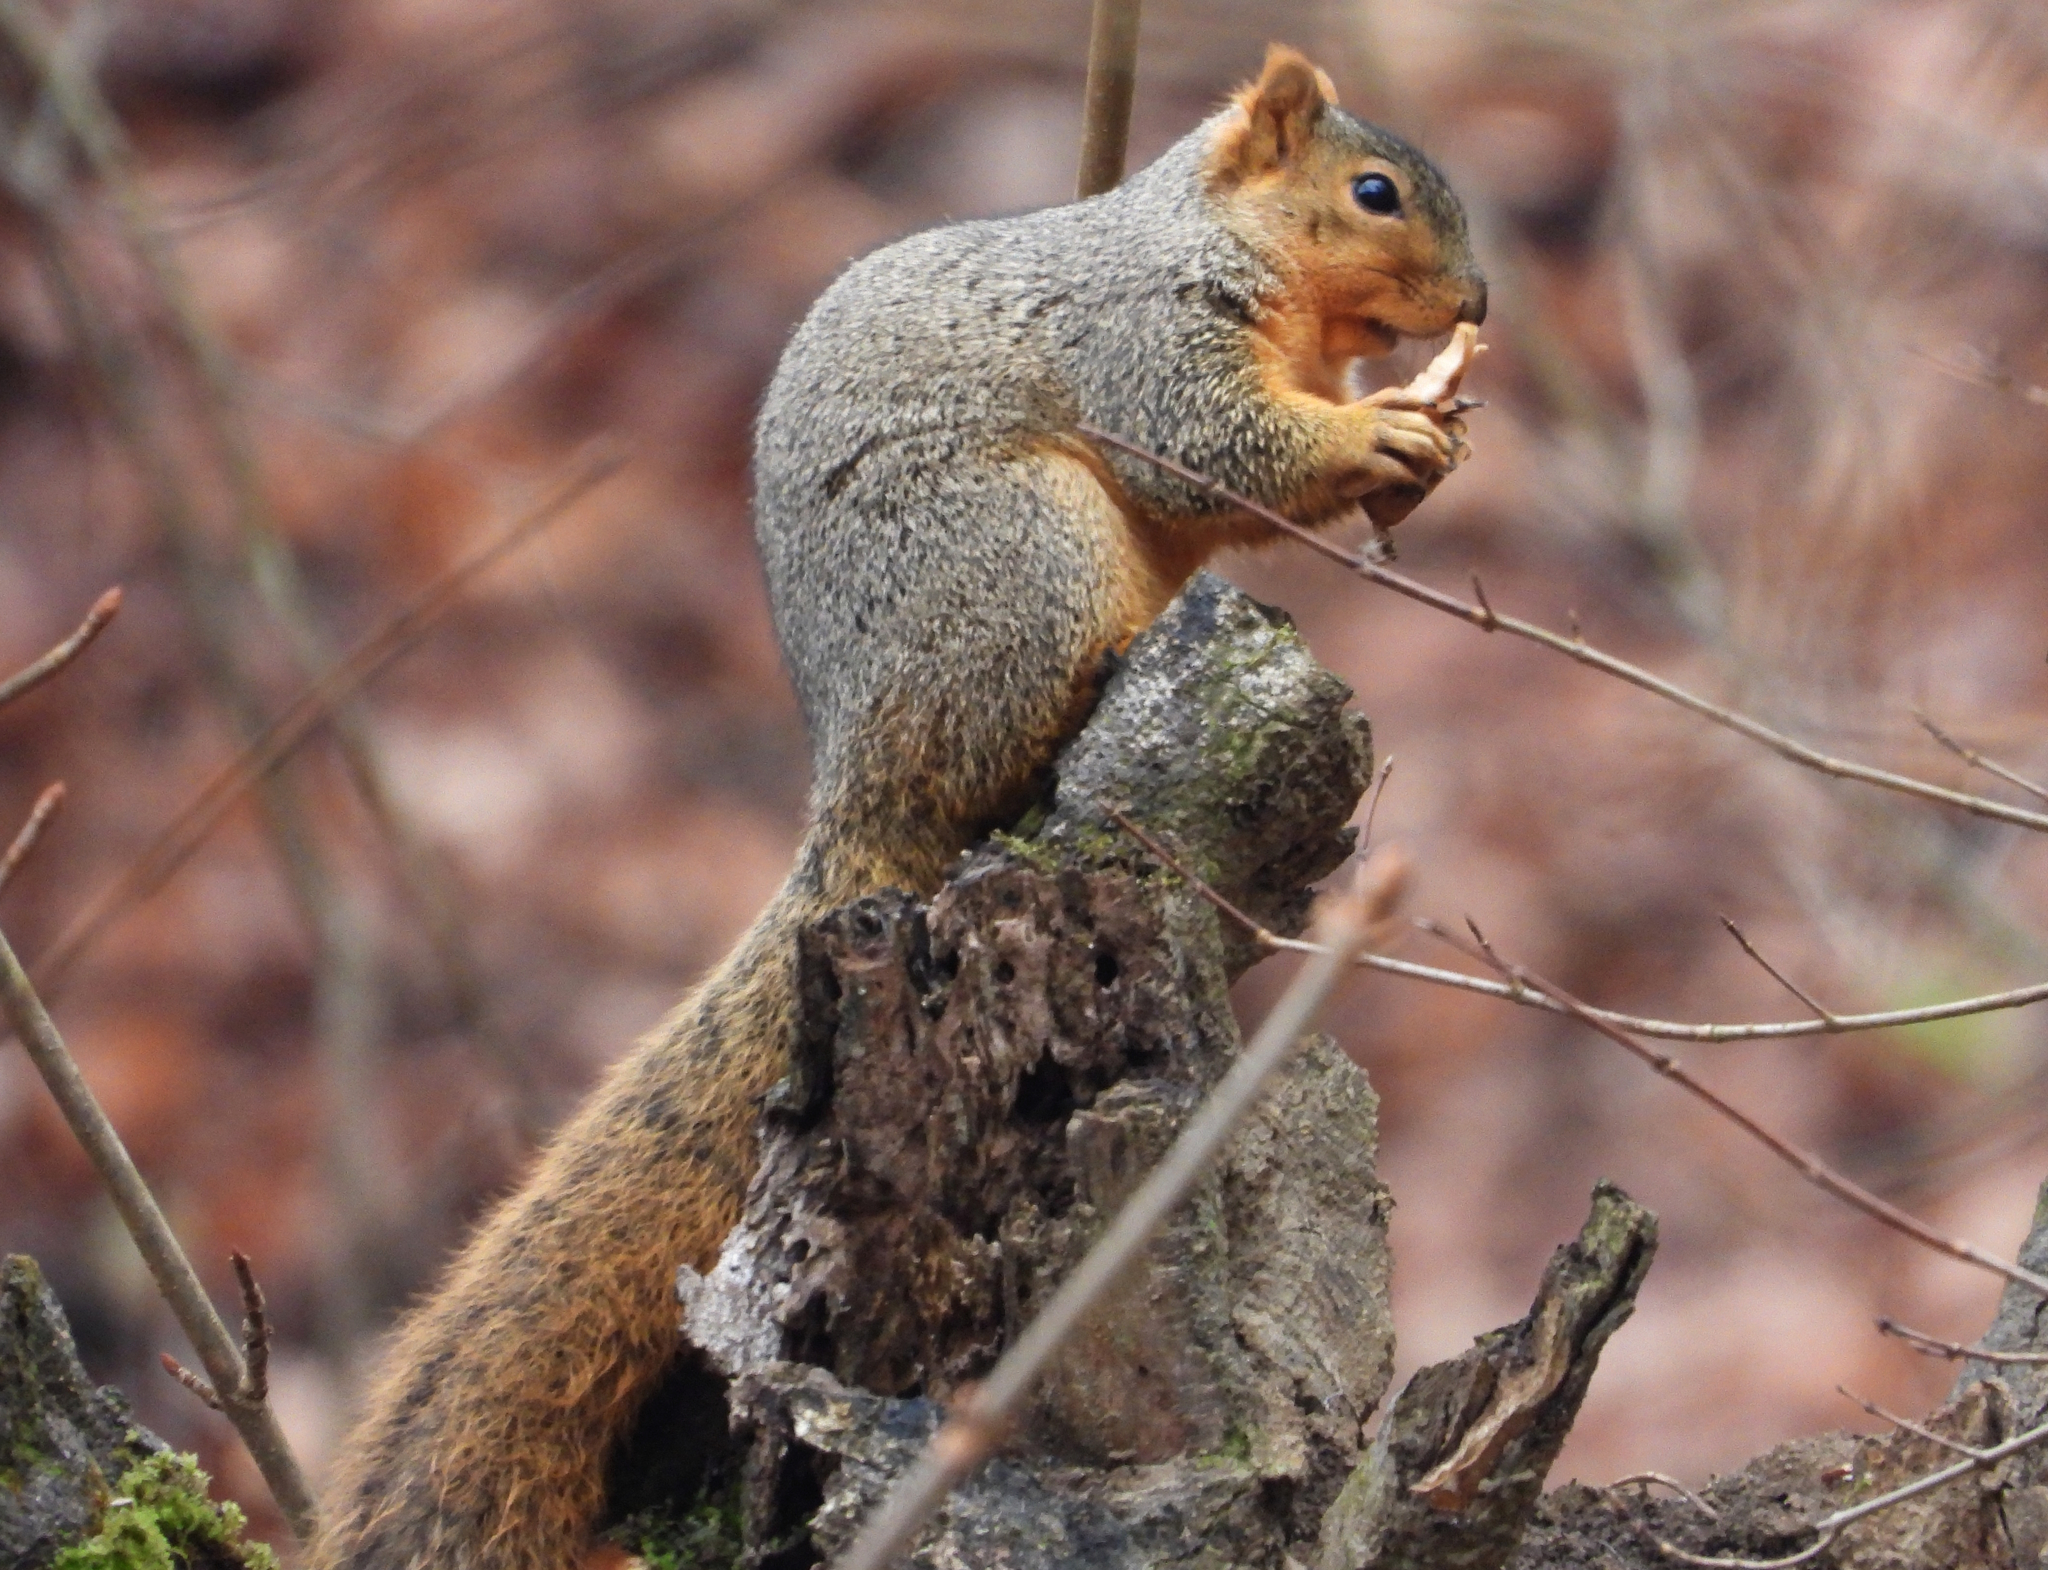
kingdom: Animalia
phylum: Chordata
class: Mammalia
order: Rodentia
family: Sciuridae
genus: Sciurus
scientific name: Sciurus niger
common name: Fox squirrel
